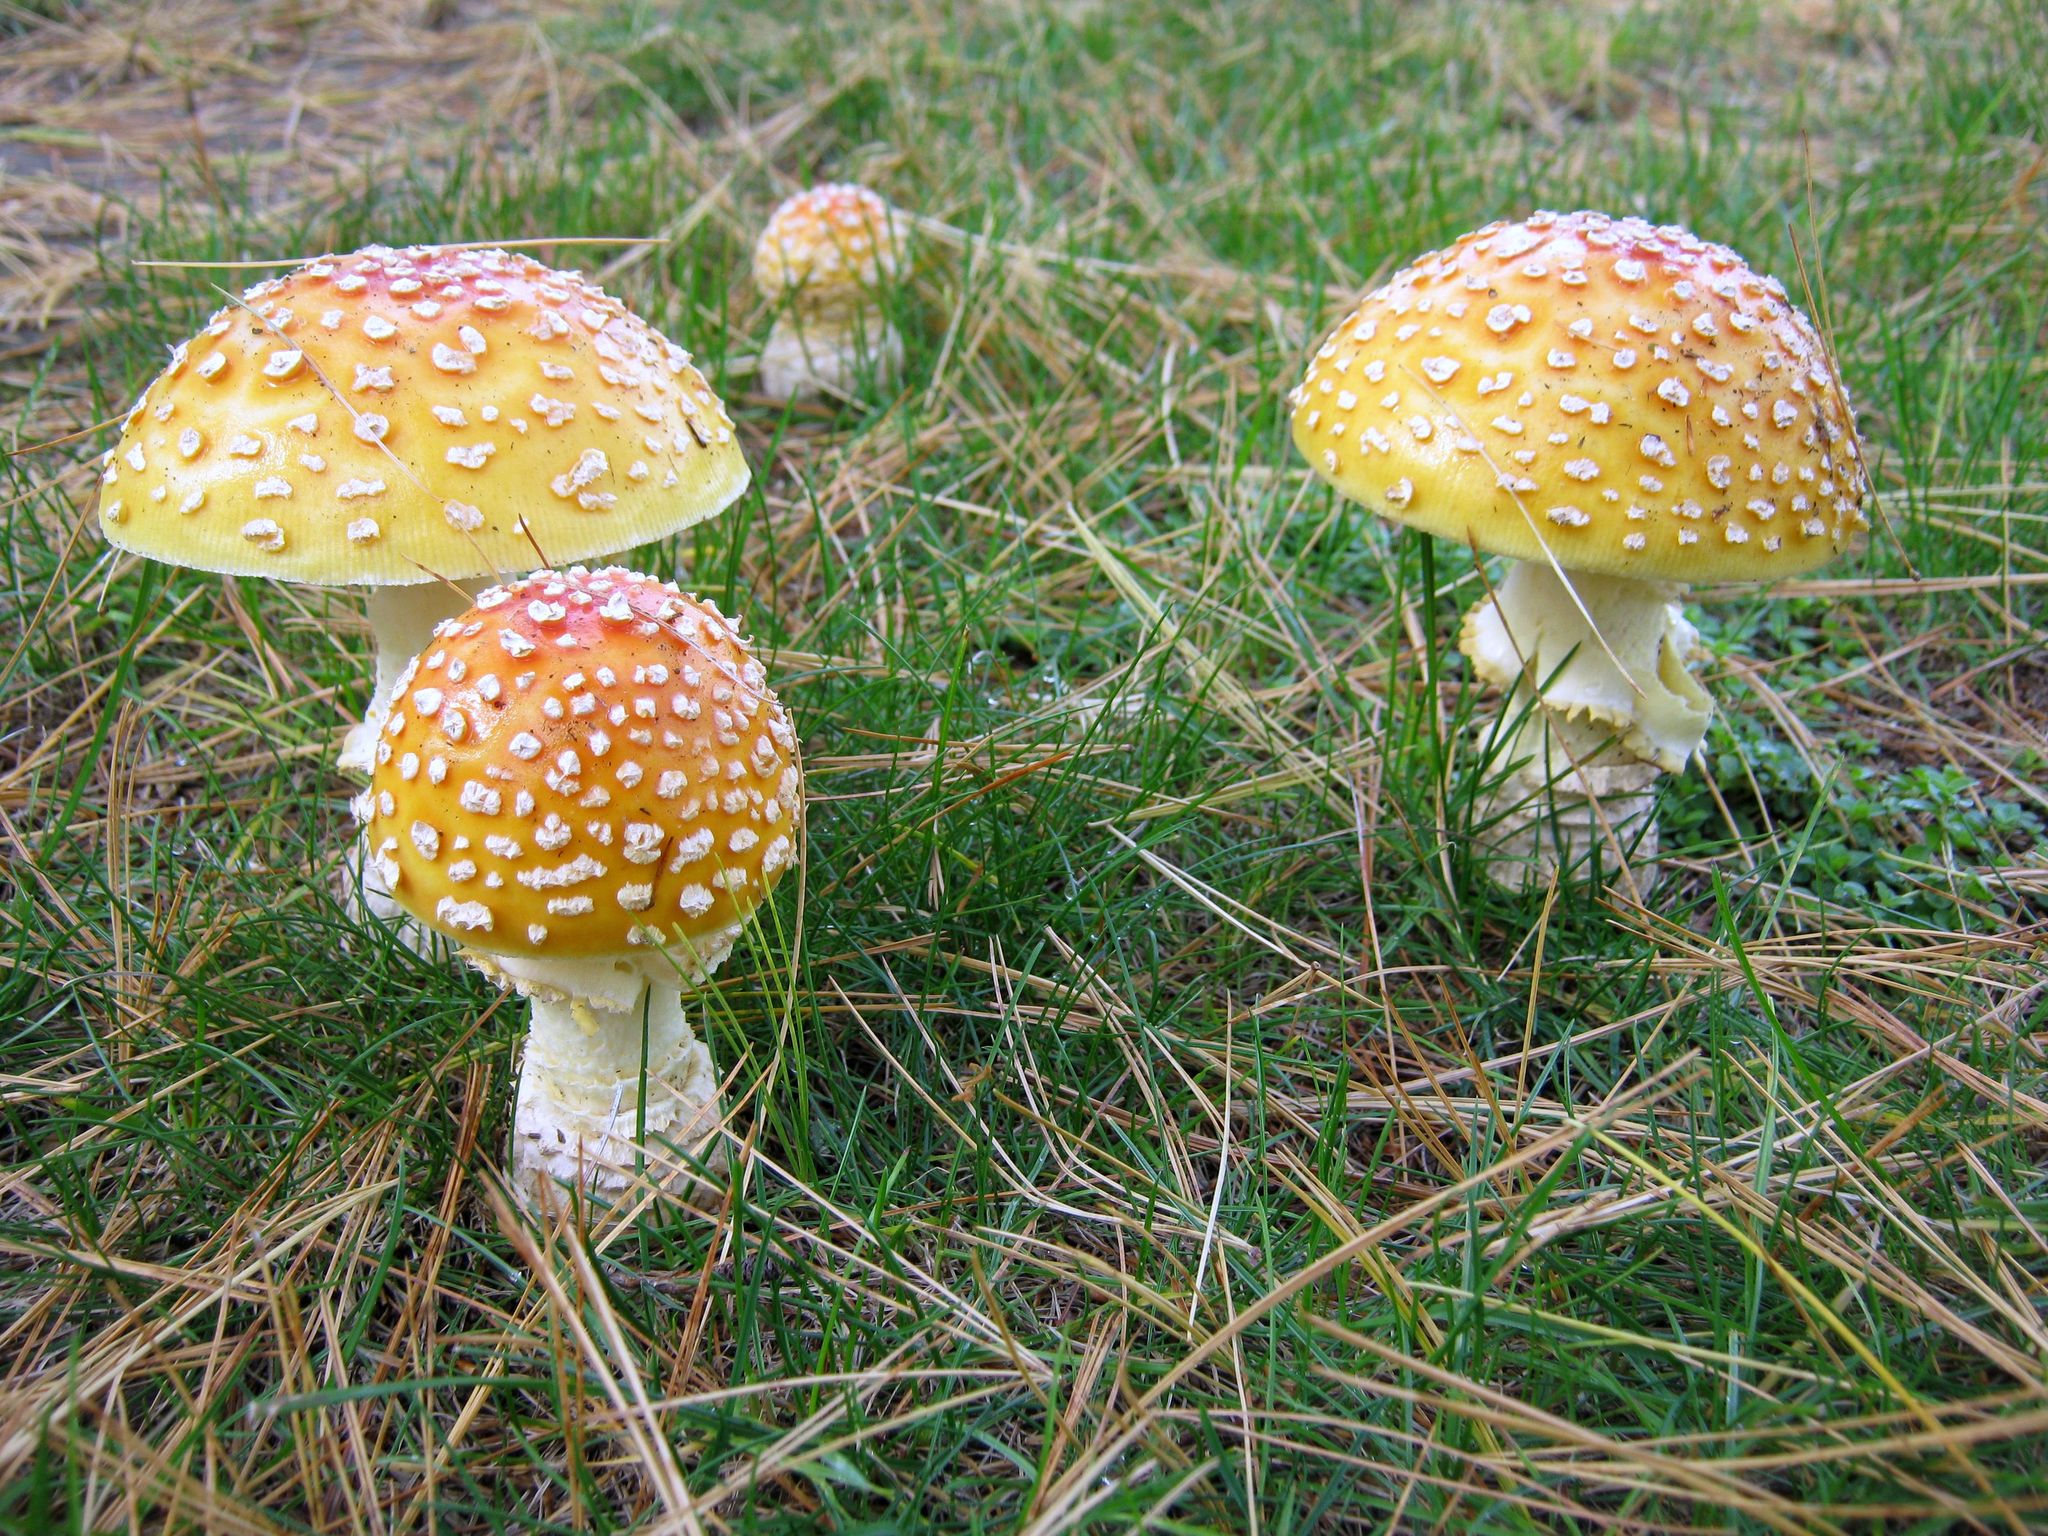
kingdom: Fungi
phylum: Basidiomycota
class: Agaricomycetes
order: Agaricales
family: Amanitaceae
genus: Amanita
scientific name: Amanita muscaria
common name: Fly agaric
